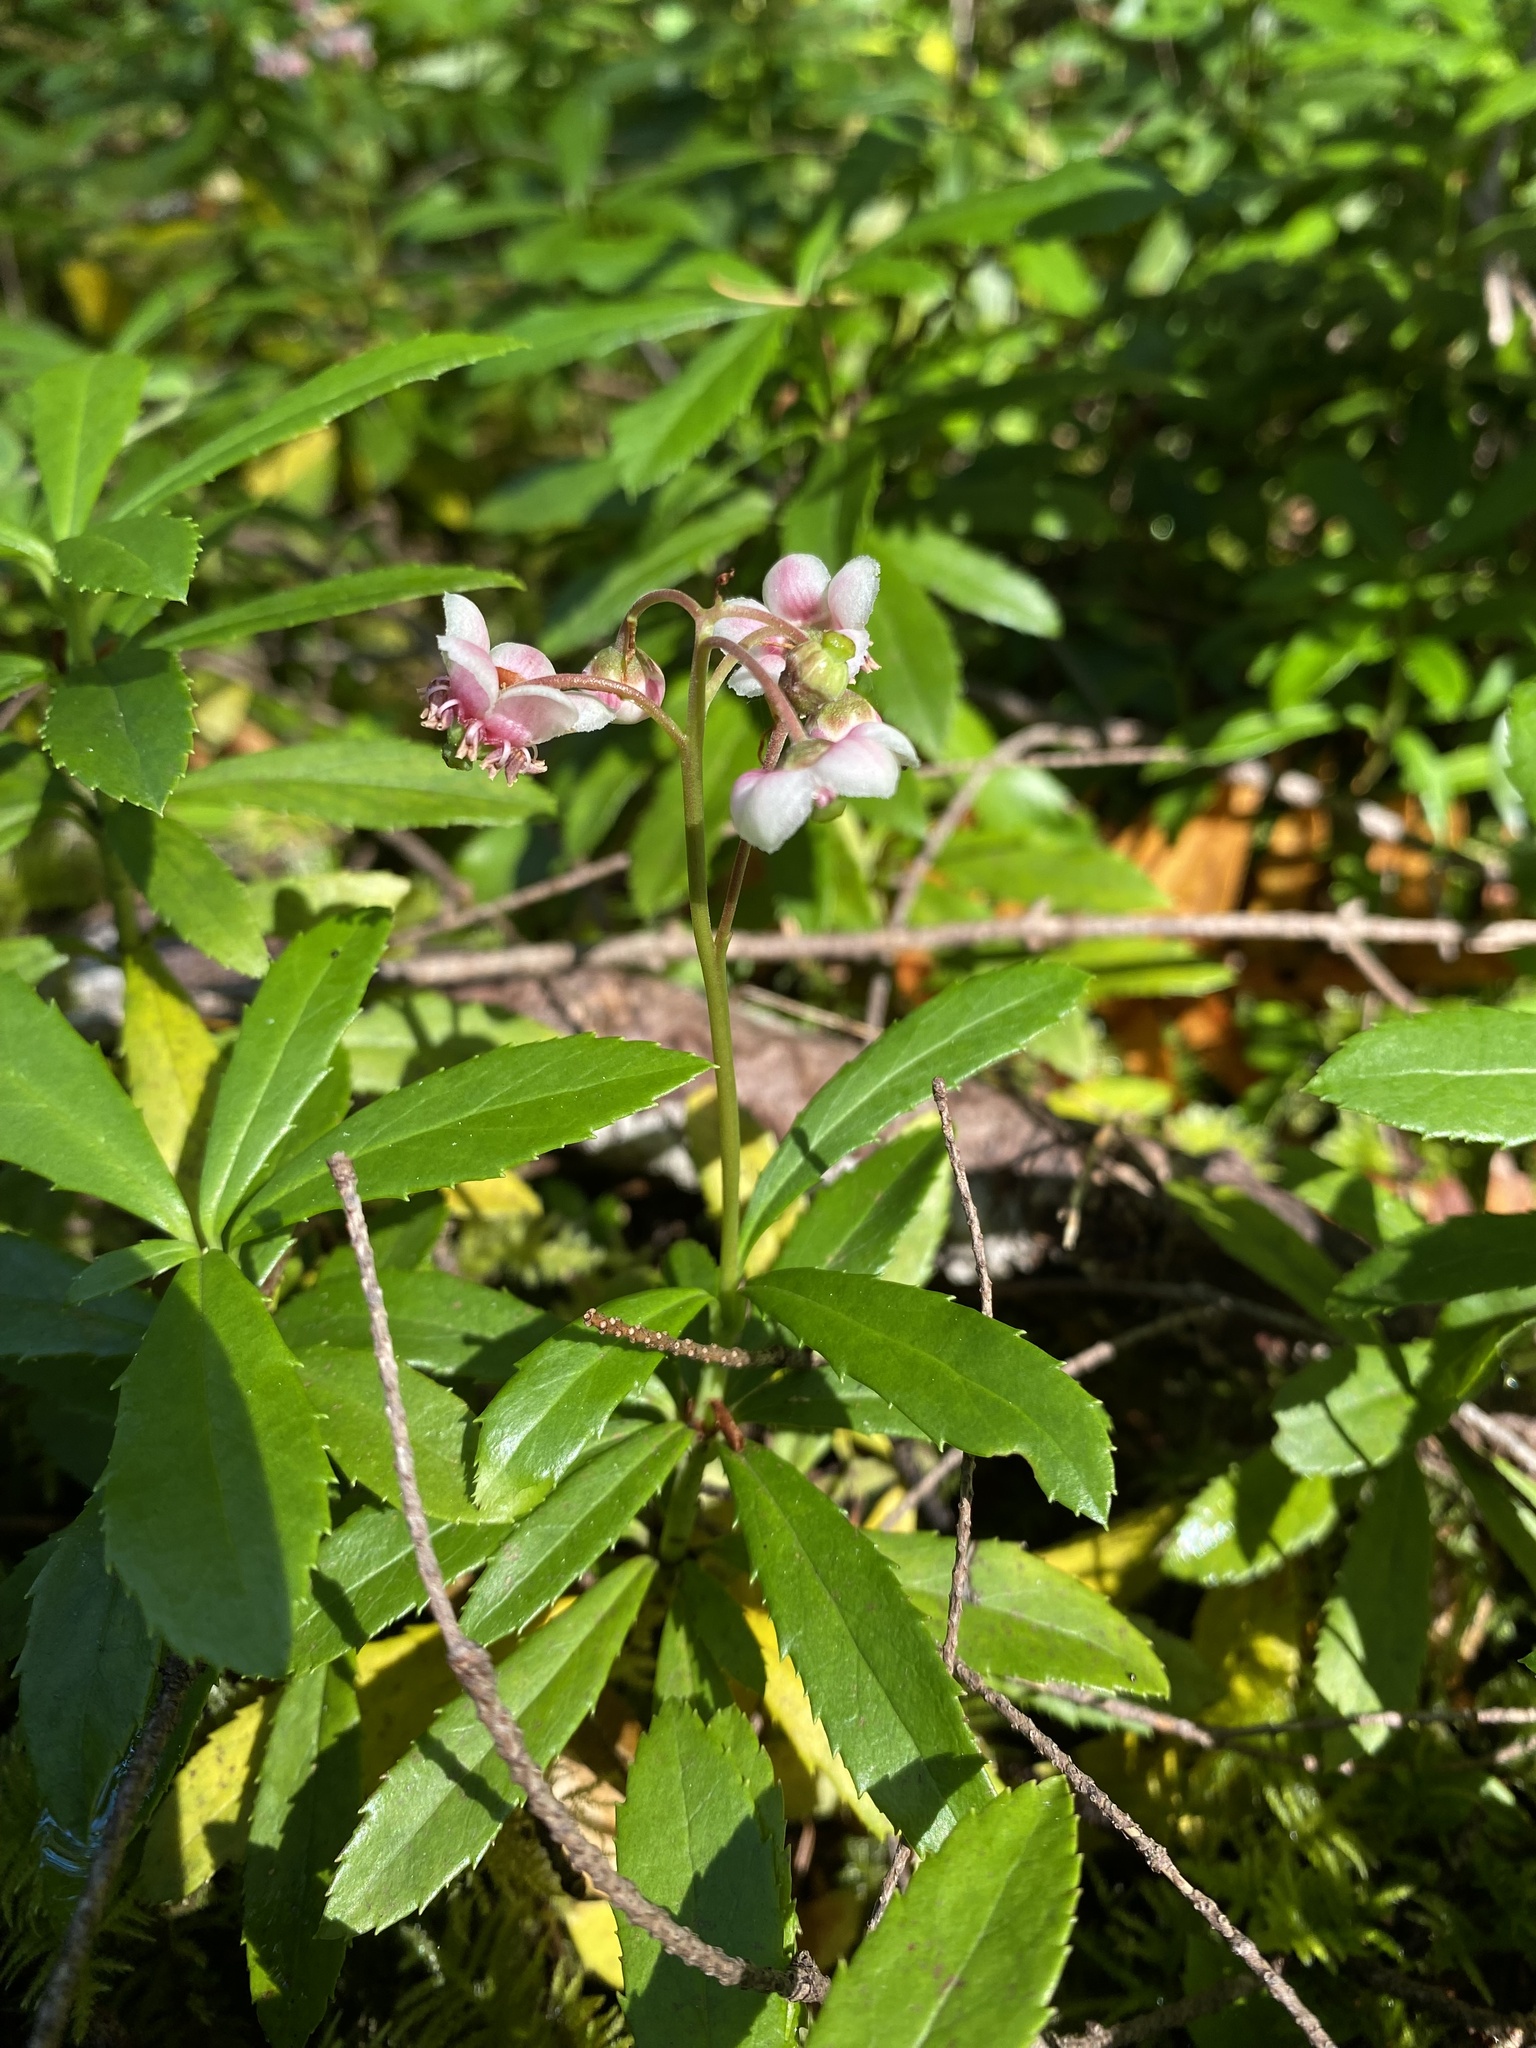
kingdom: Plantae
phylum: Tracheophyta
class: Magnoliopsida
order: Ericales
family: Ericaceae
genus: Chimaphila
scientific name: Chimaphila umbellata
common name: Pipsissewa
